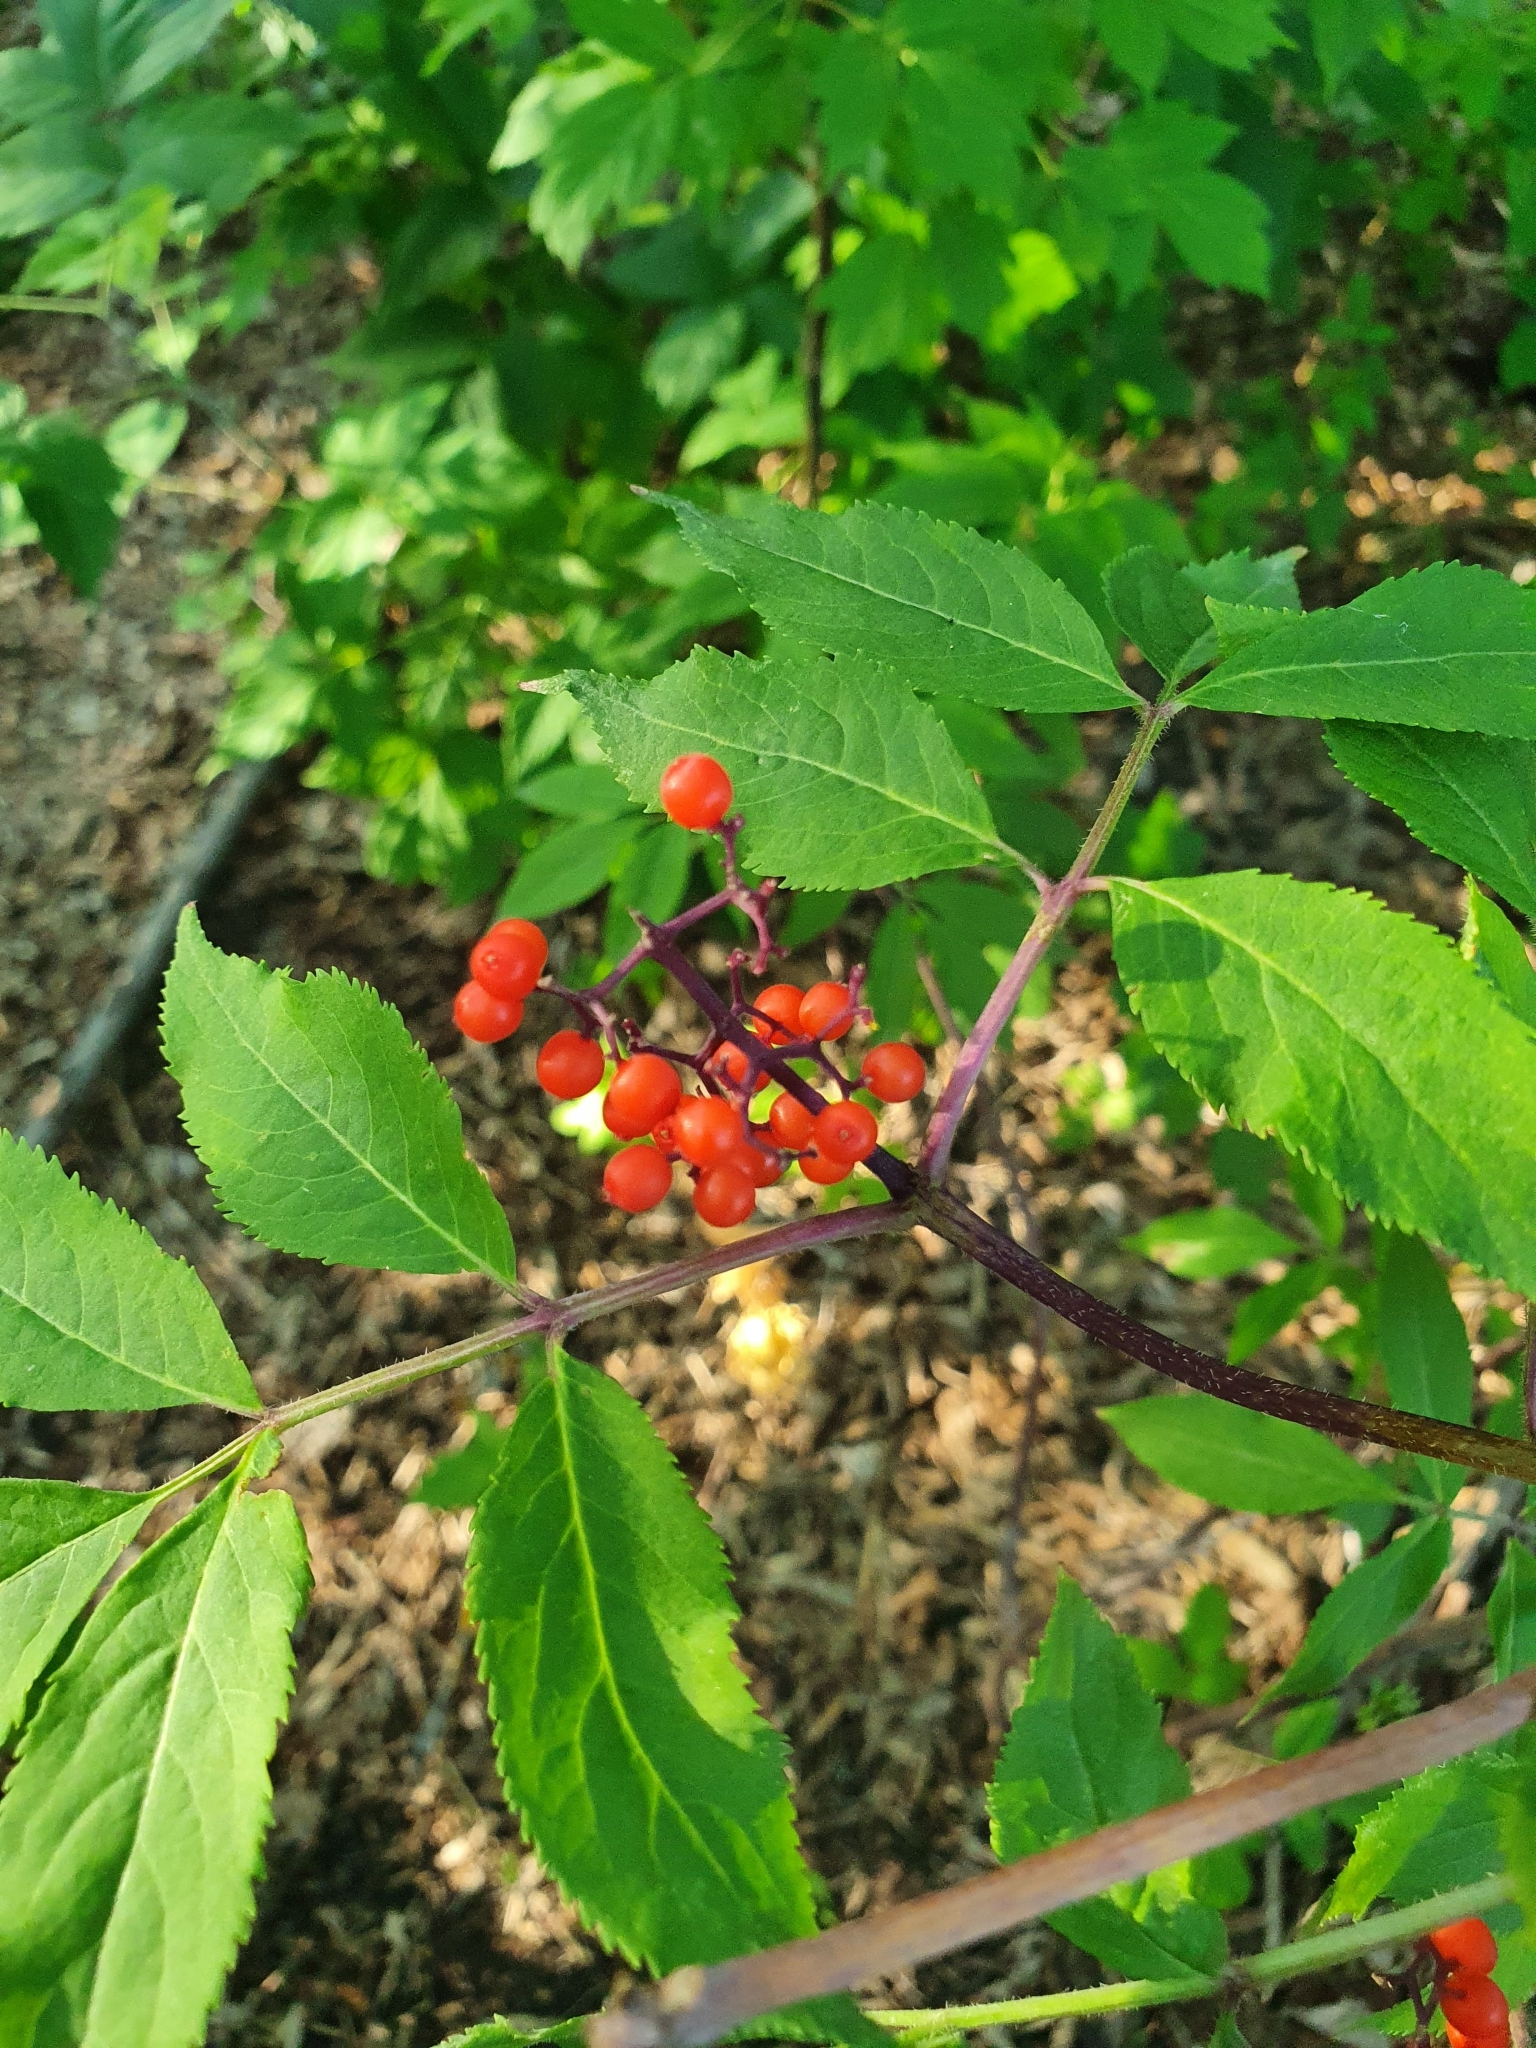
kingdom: Plantae
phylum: Tracheophyta
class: Magnoliopsida
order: Dipsacales
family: Viburnaceae
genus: Sambucus
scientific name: Sambucus racemosa
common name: Red-berried elder
